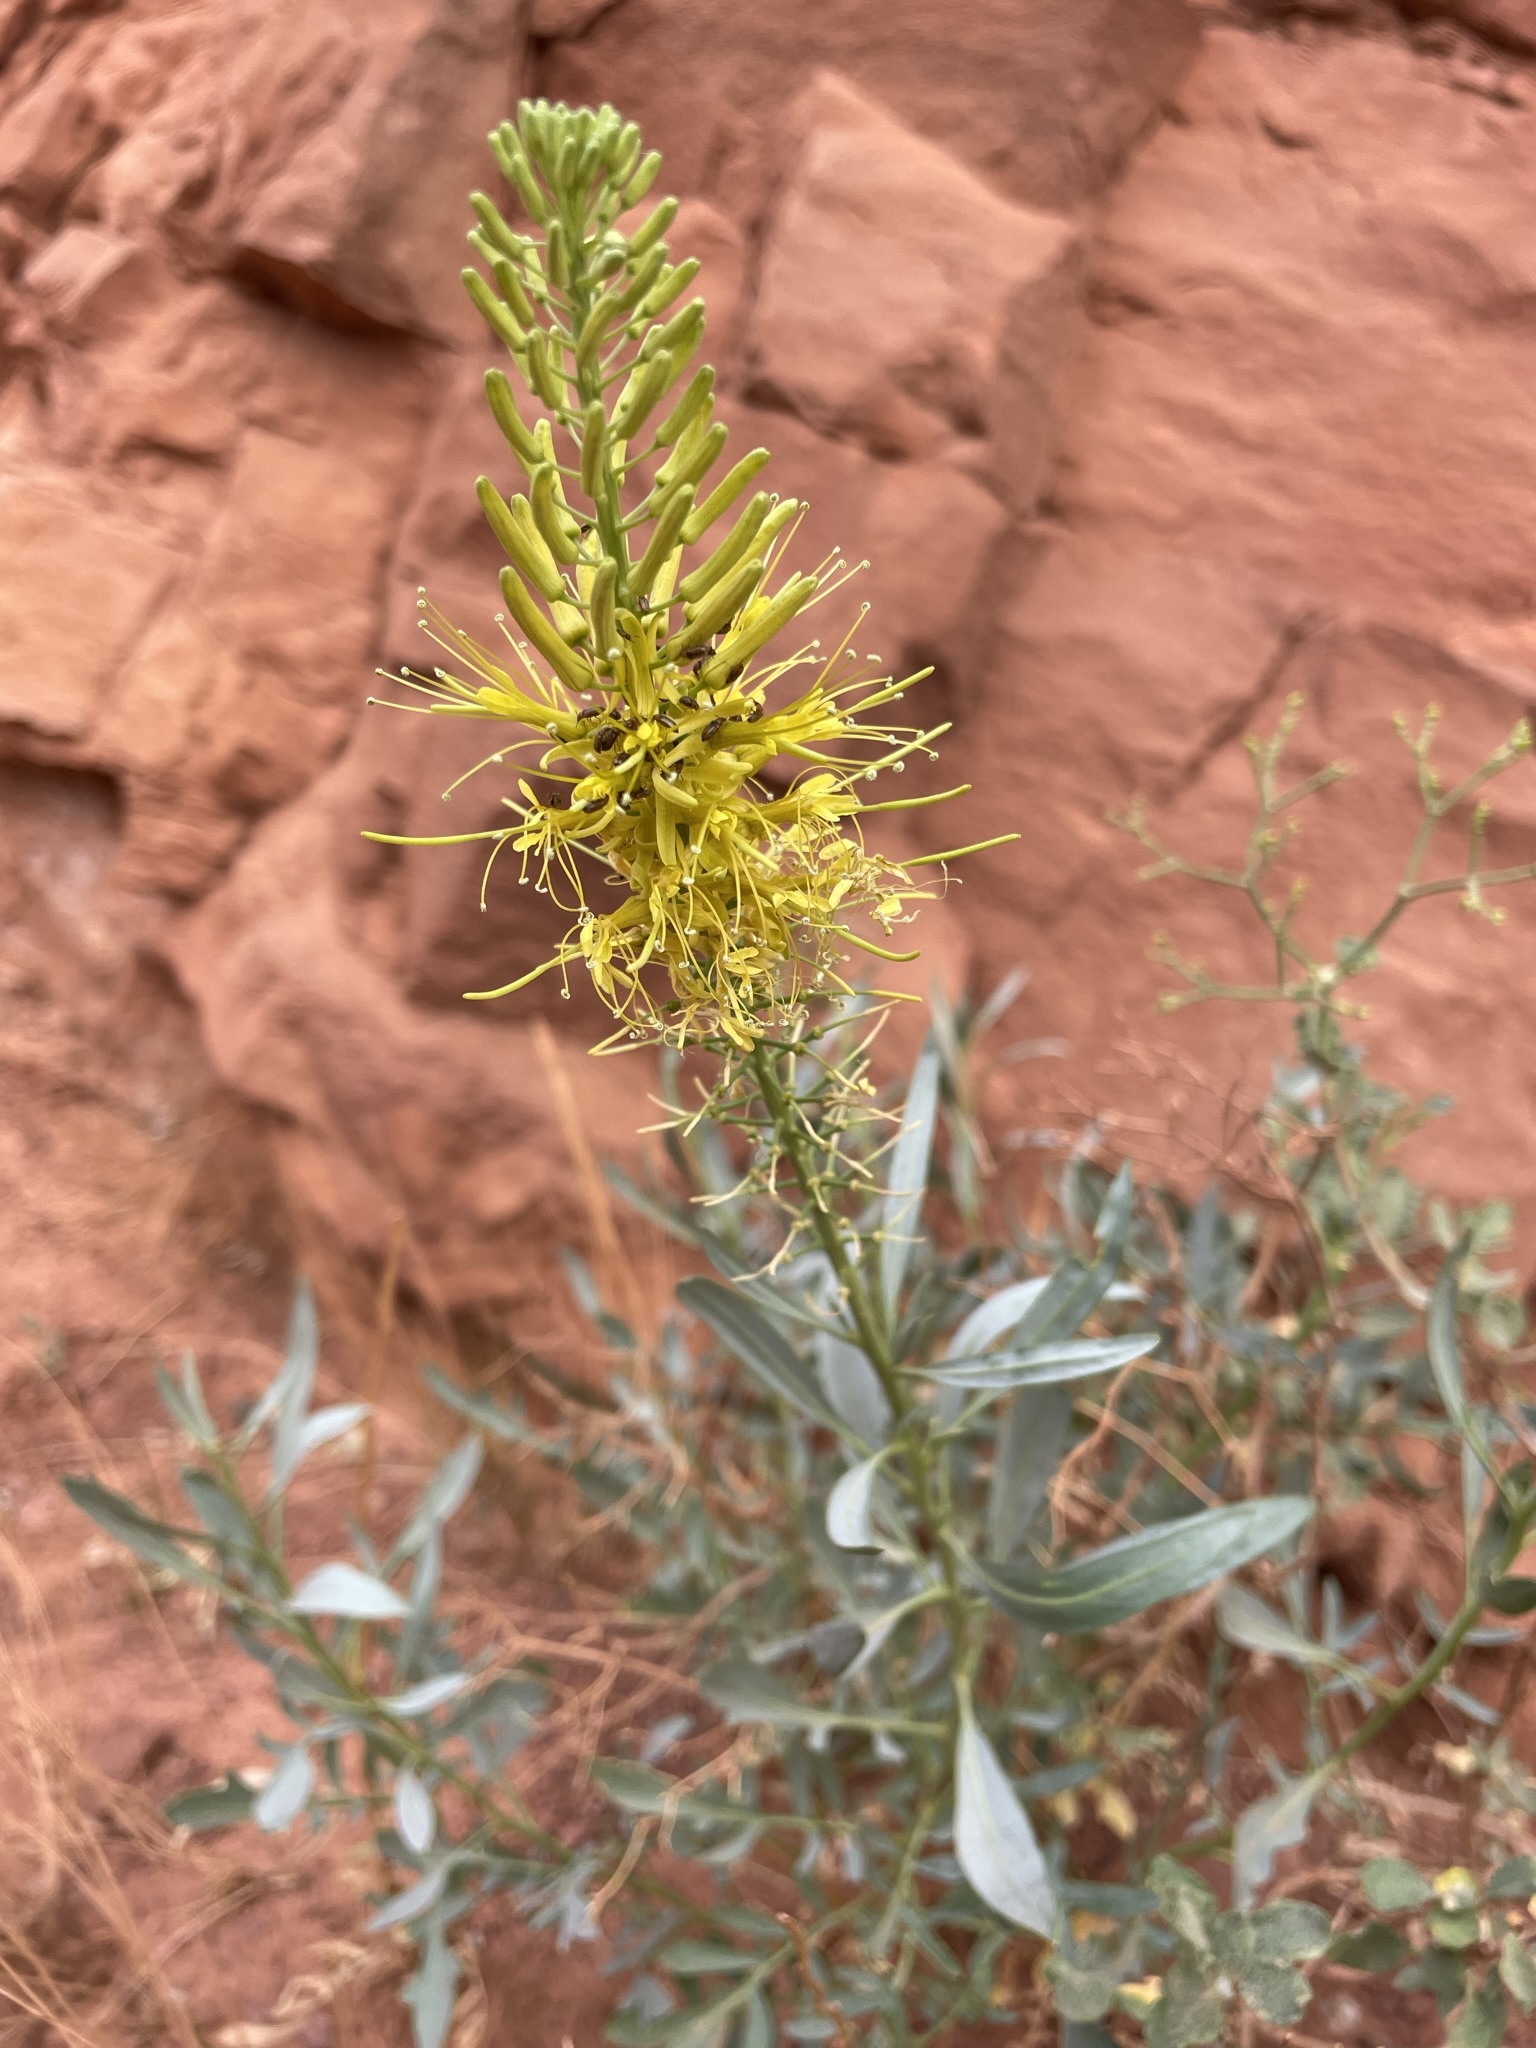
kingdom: Plantae
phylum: Tracheophyta
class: Magnoliopsida
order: Brassicales
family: Brassicaceae
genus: Stanleya
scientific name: Stanleya pinnata
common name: Prince's-plume
